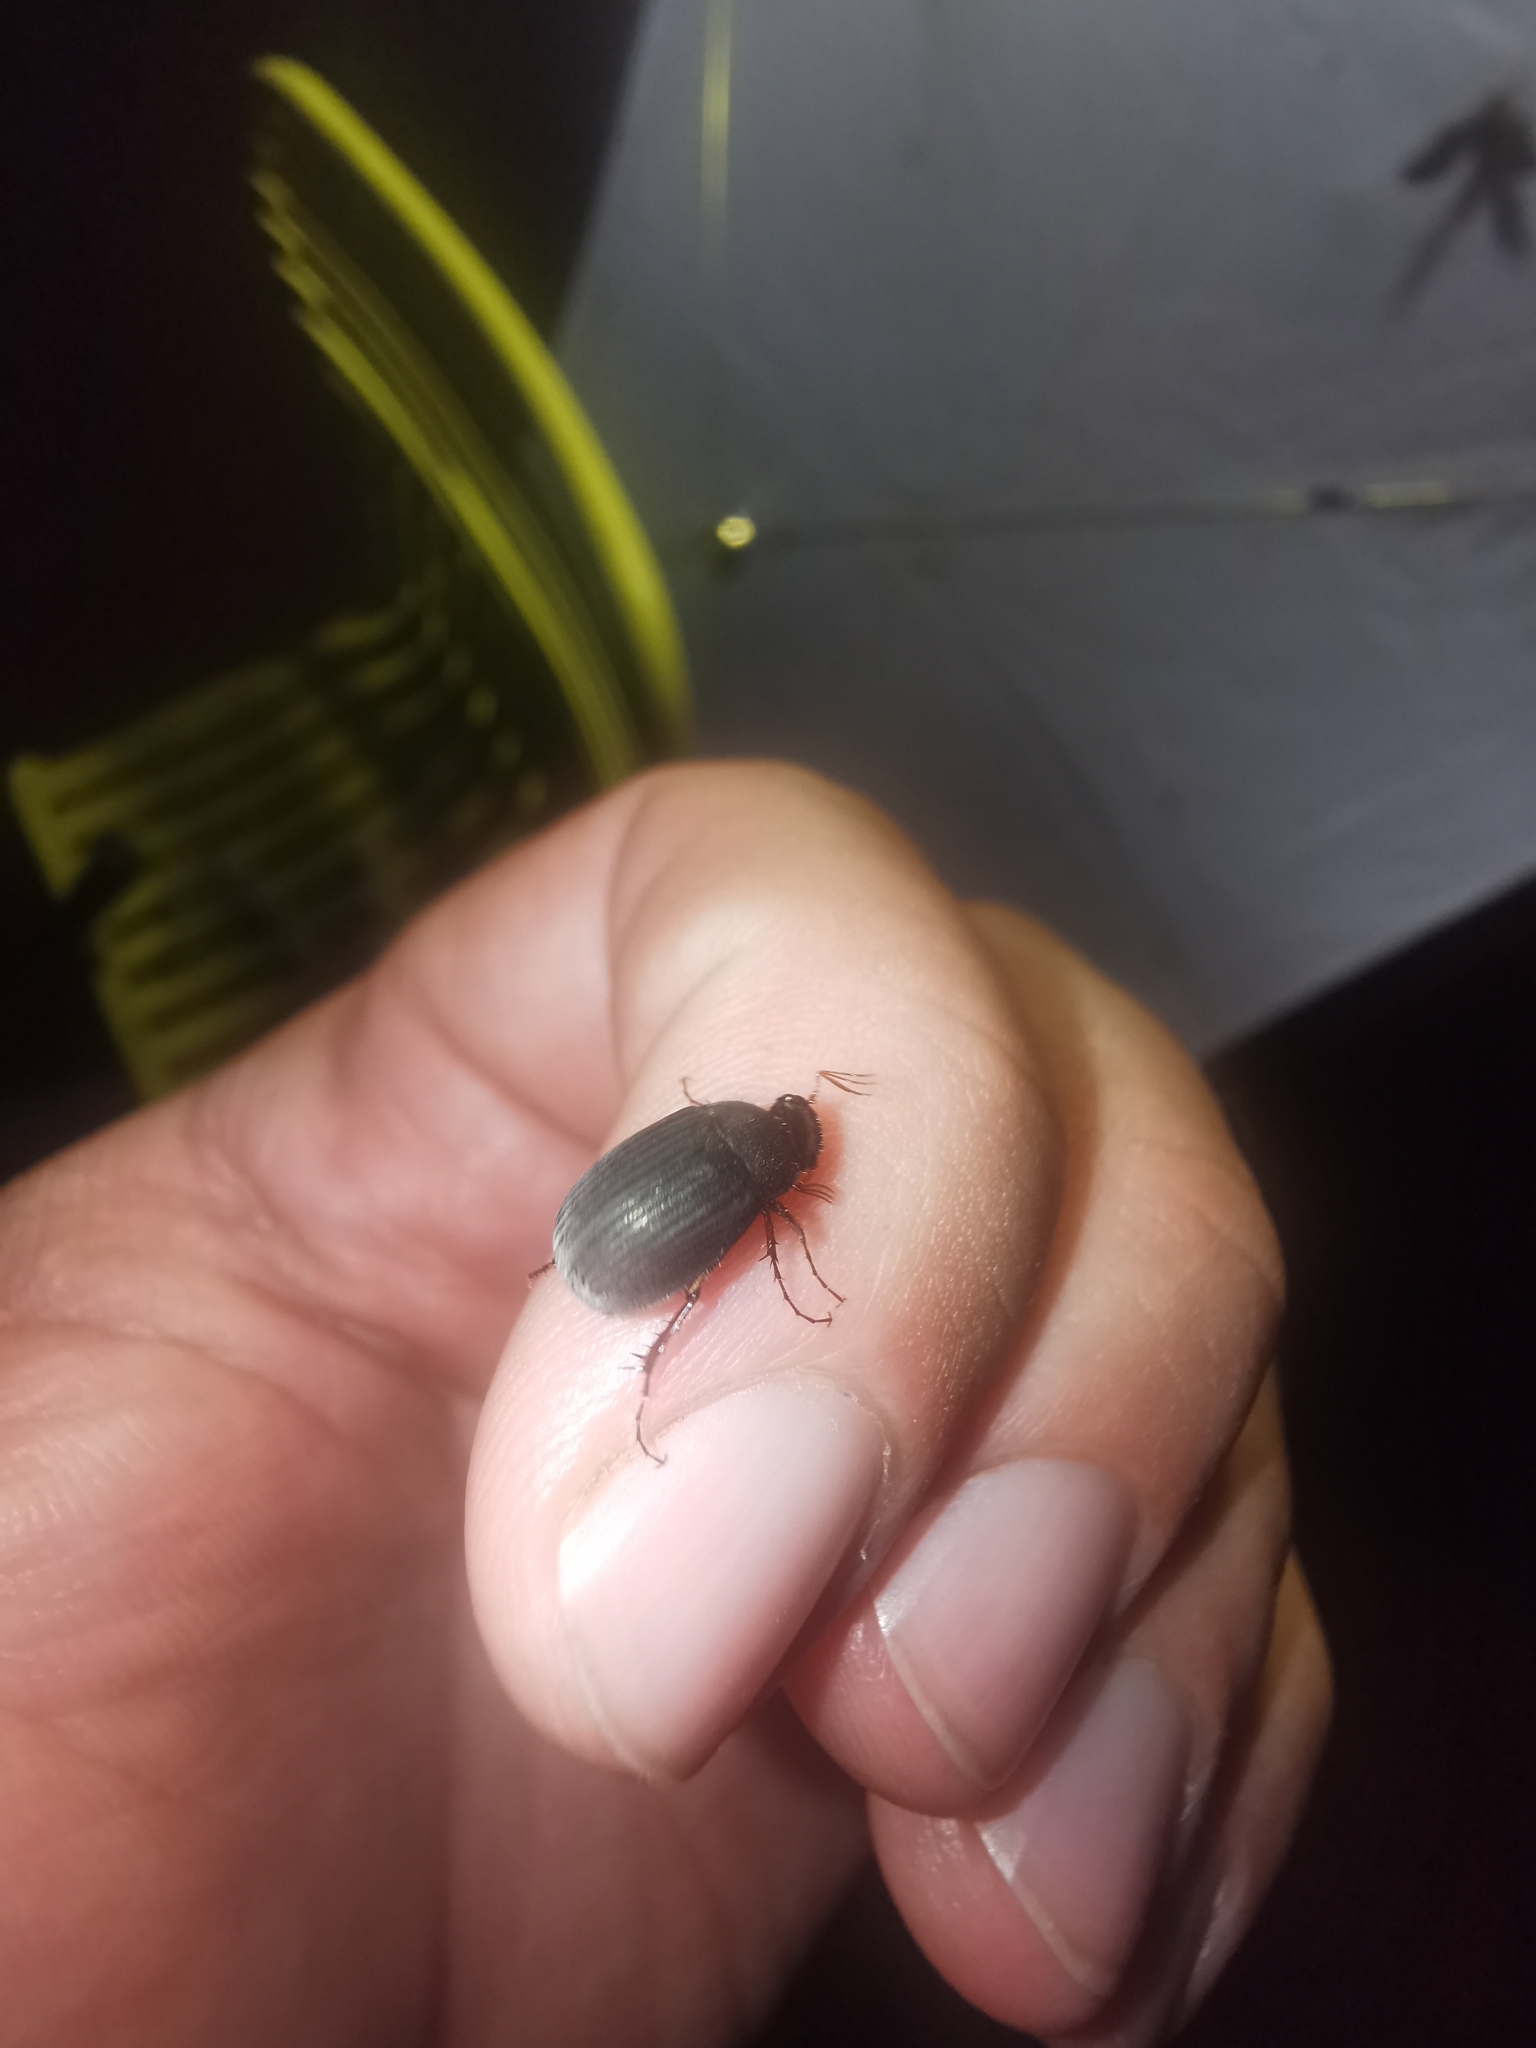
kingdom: Animalia
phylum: Arthropoda
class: Insecta
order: Coleoptera
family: Scarabaeidae
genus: Maladera
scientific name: Maladera holosericea
